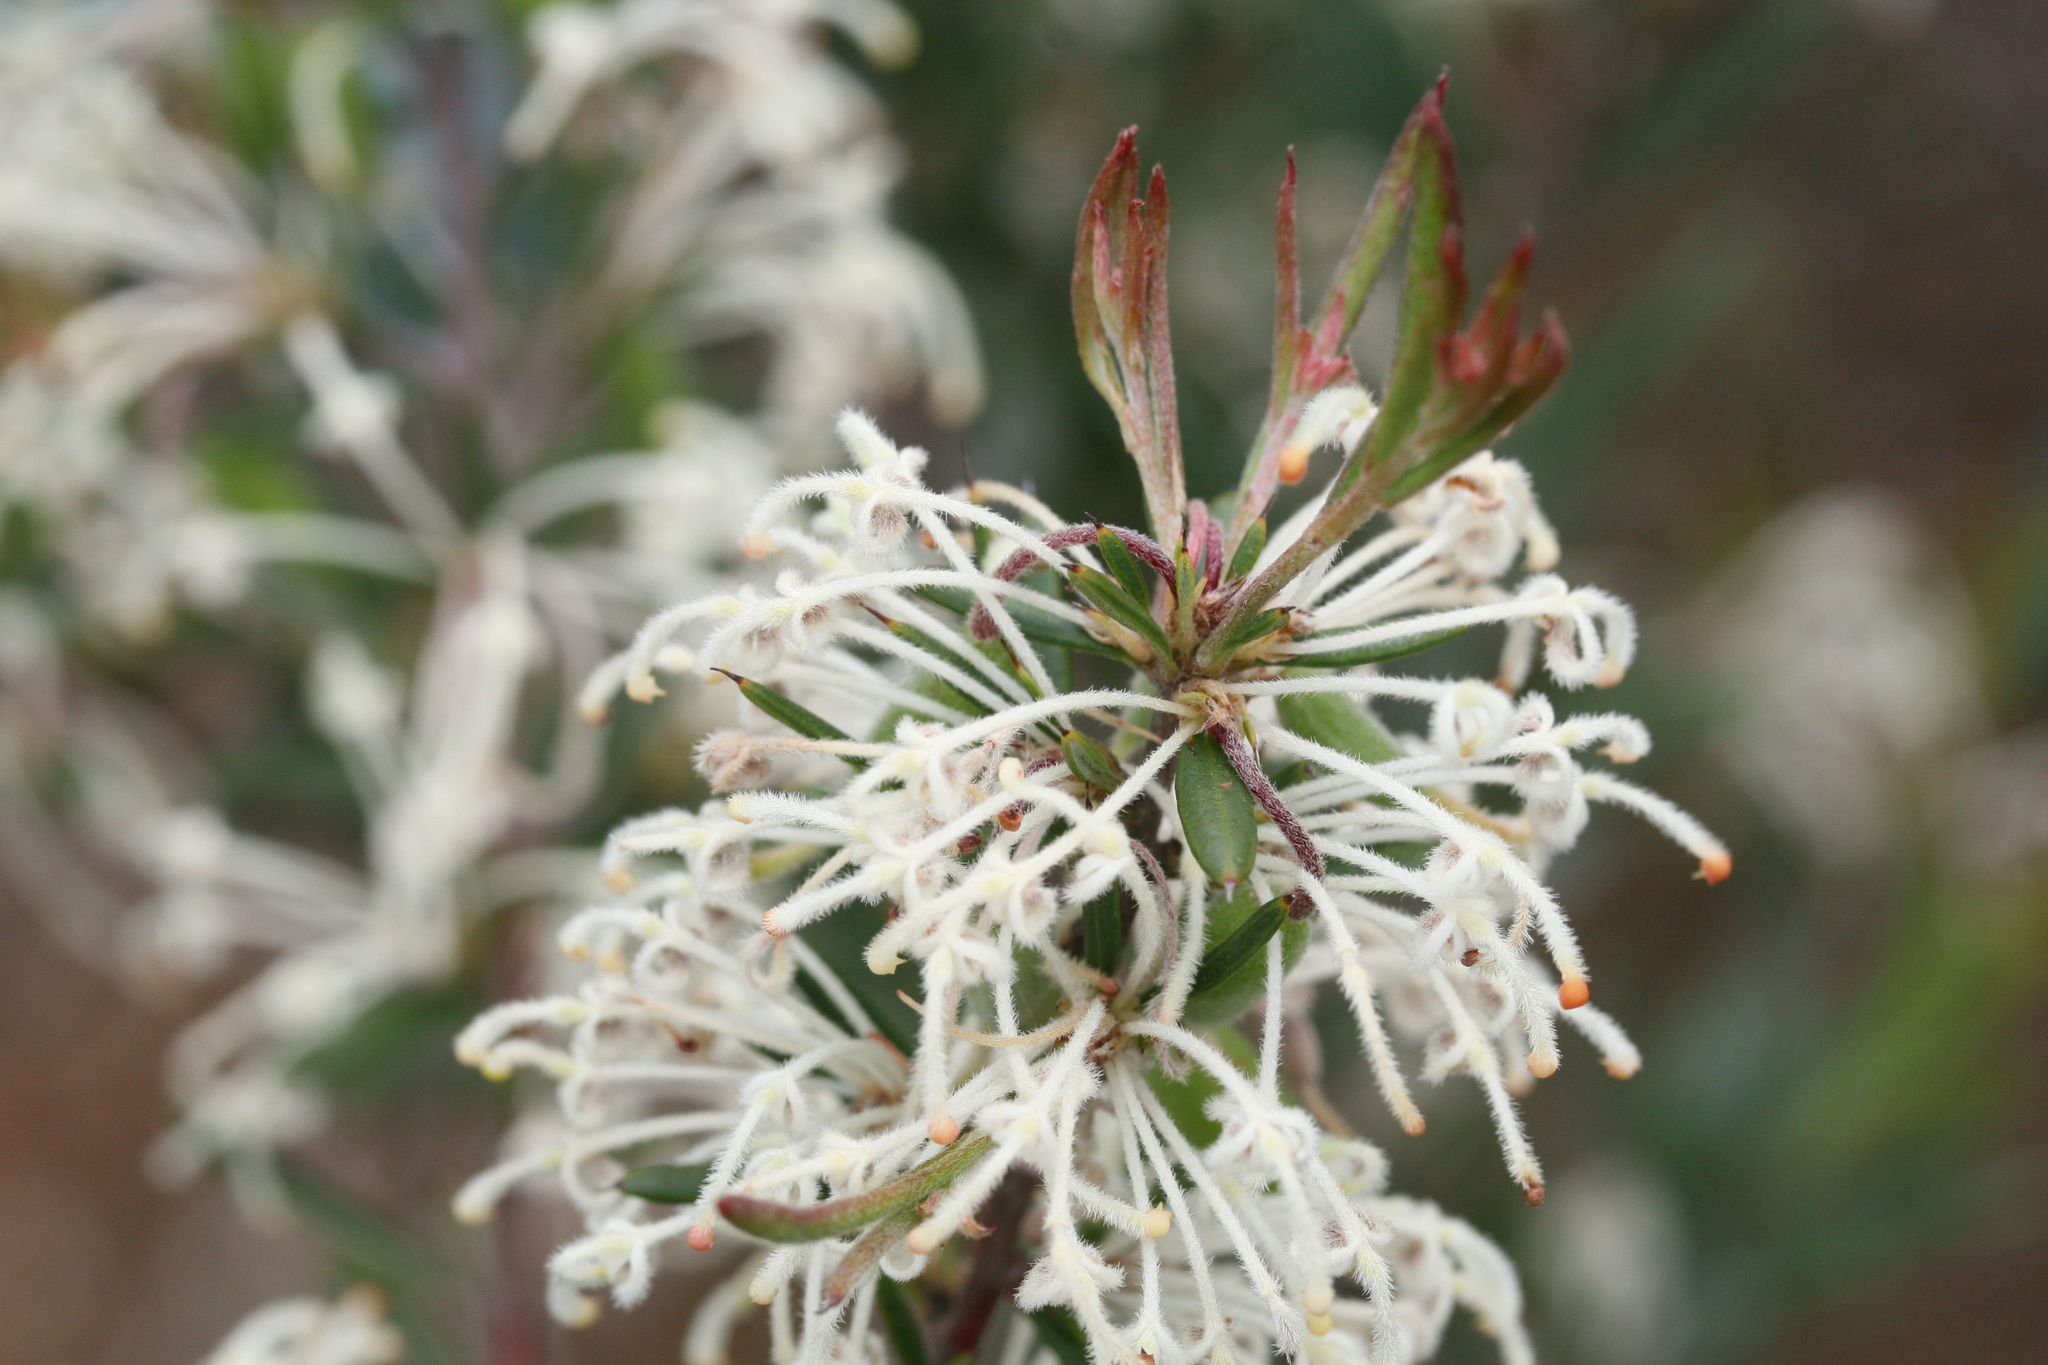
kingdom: Plantae
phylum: Tracheophyta
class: Magnoliopsida
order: Proteales
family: Proteaceae
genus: Grevillea
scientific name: Grevillea pilulifera
